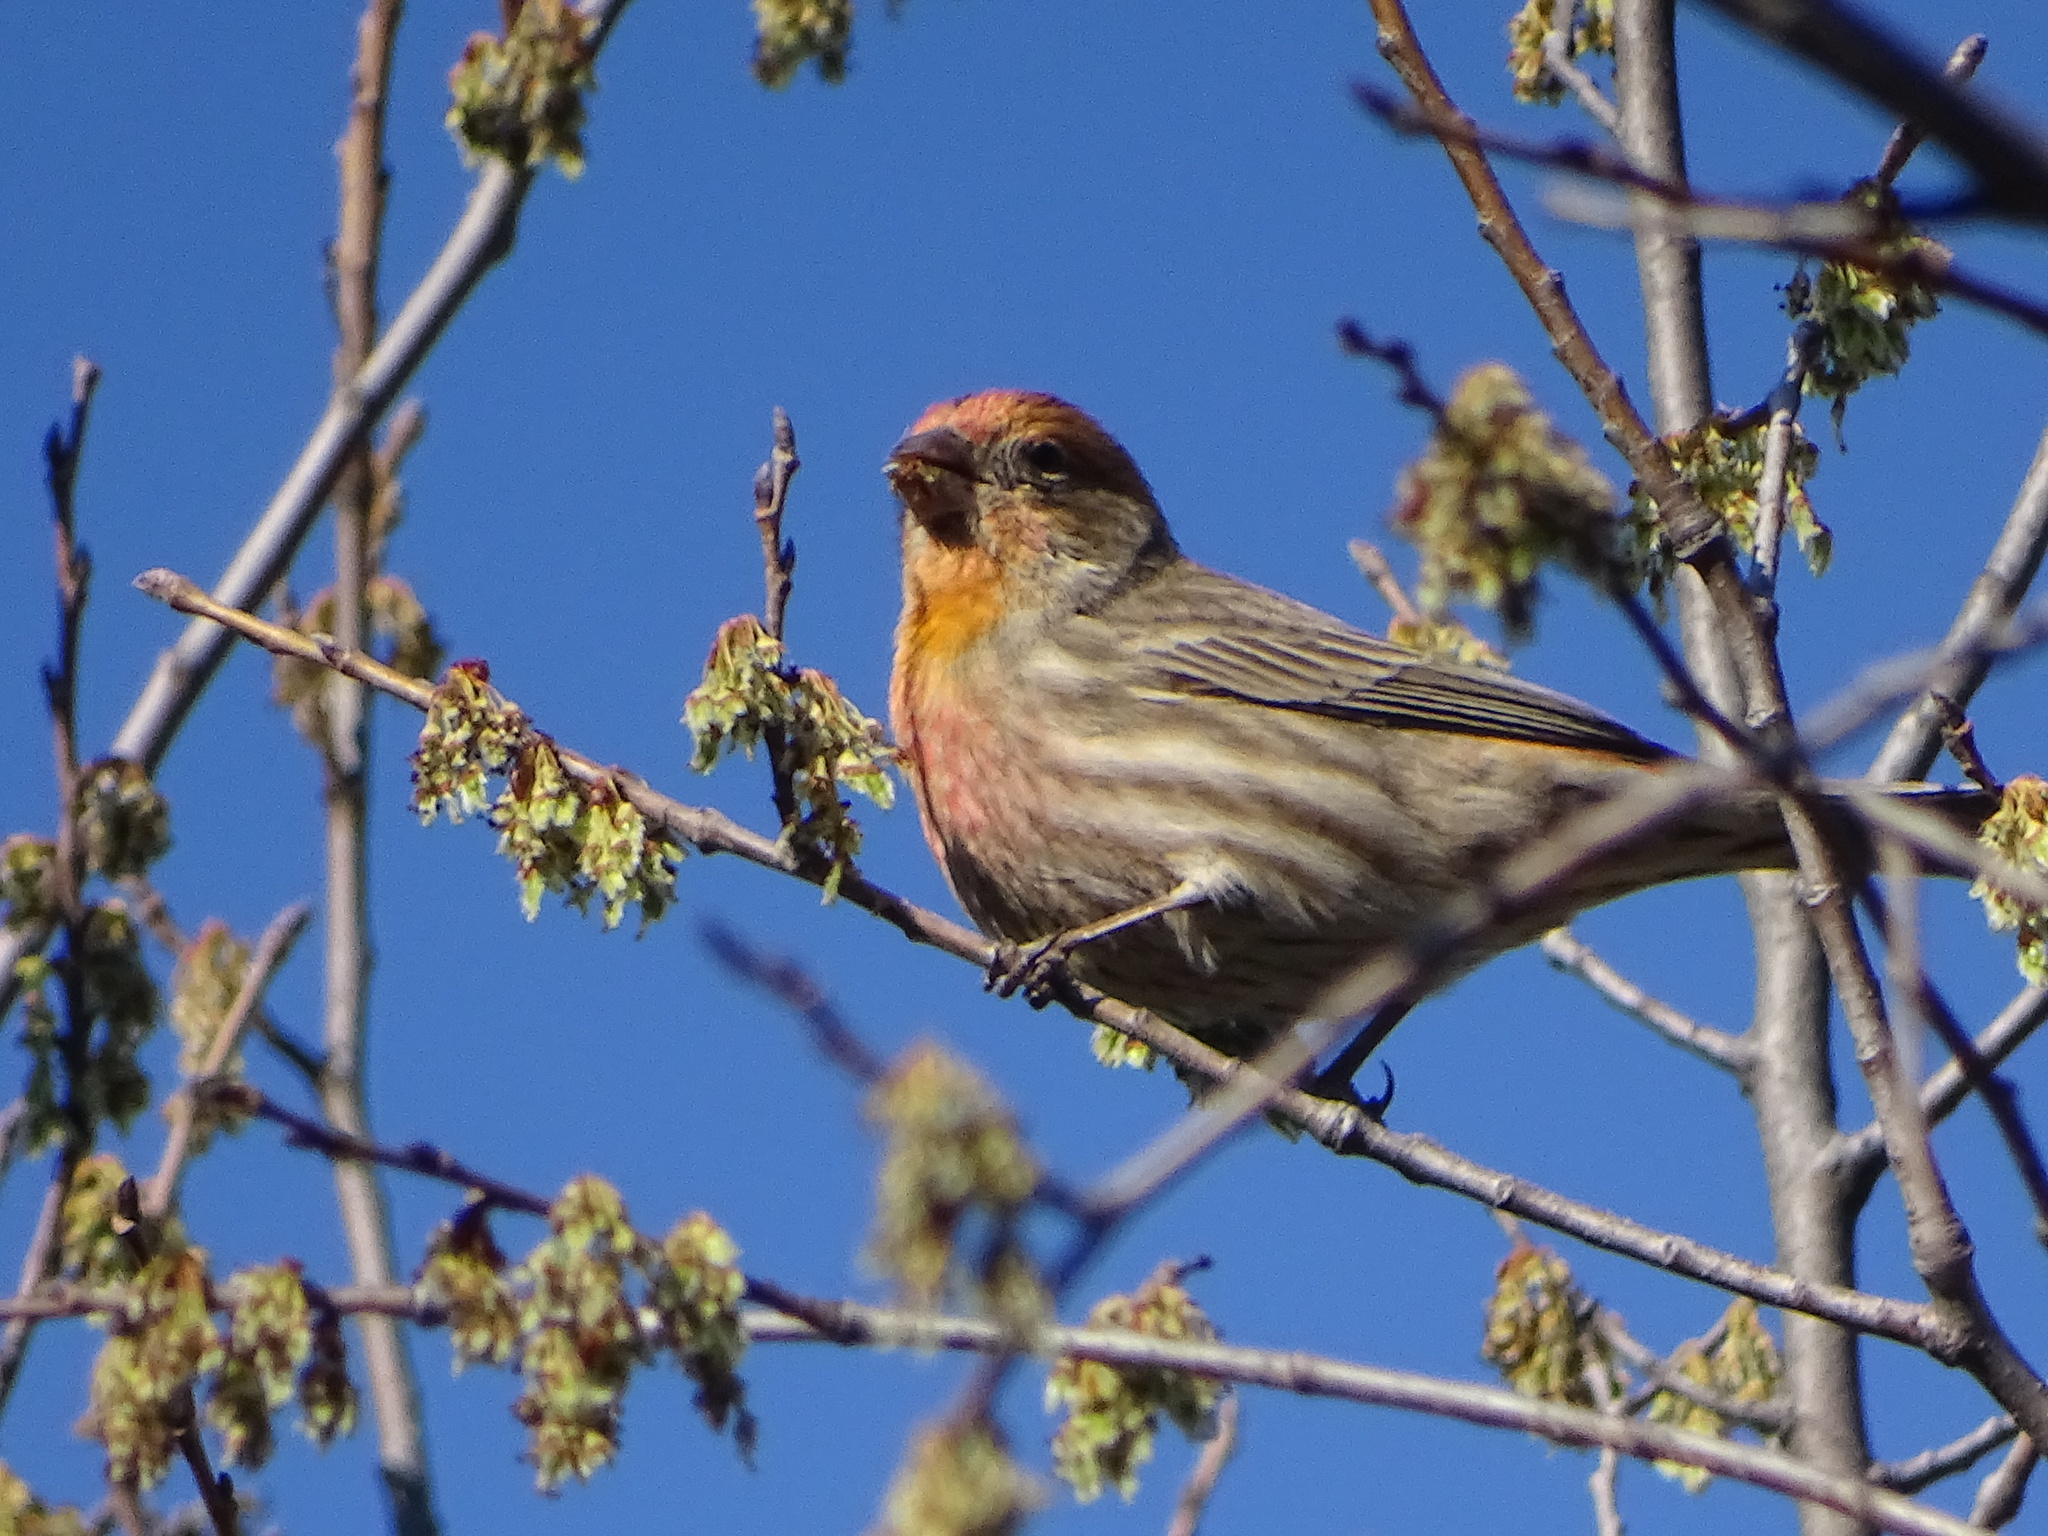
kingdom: Animalia
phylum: Chordata
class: Aves
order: Passeriformes
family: Fringillidae
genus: Haemorhous
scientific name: Haemorhous mexicanus
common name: House finch
